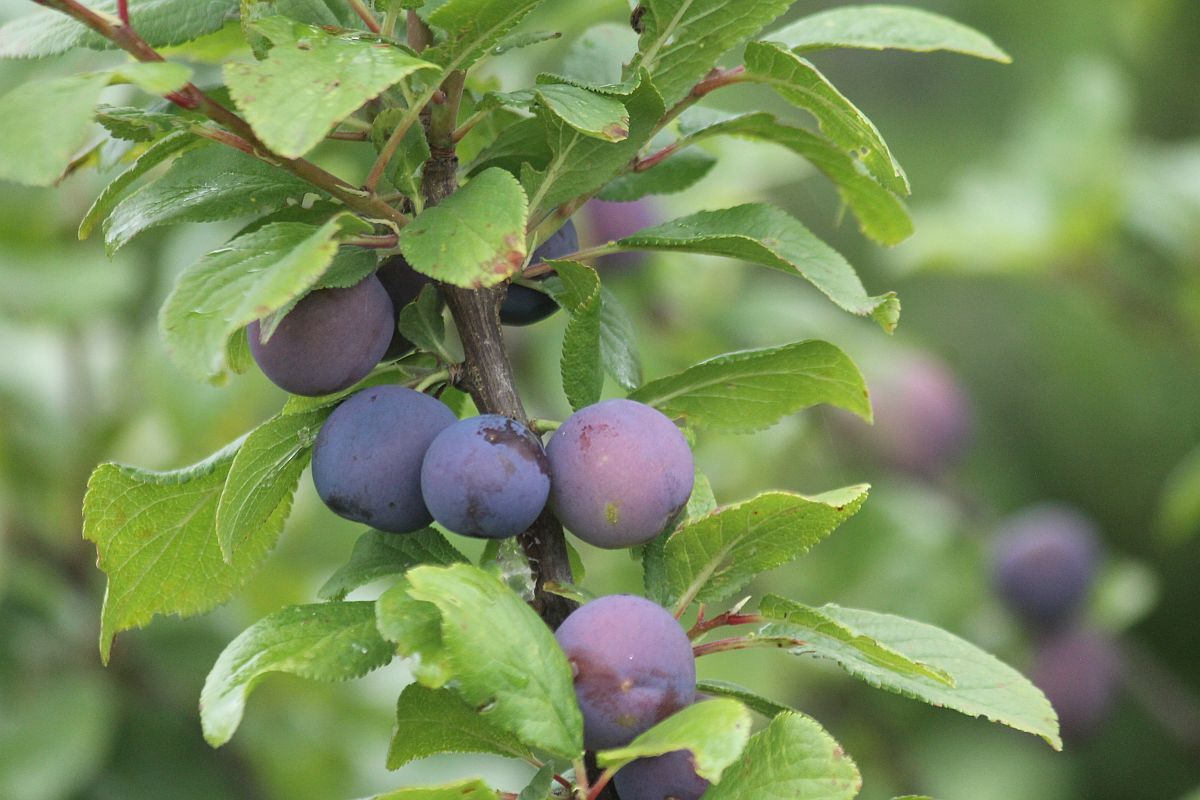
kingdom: Plantae
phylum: Tracheophyta
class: Magnoliopsida
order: Rosales
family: Rosaceae
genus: Prunus
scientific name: Prunus
